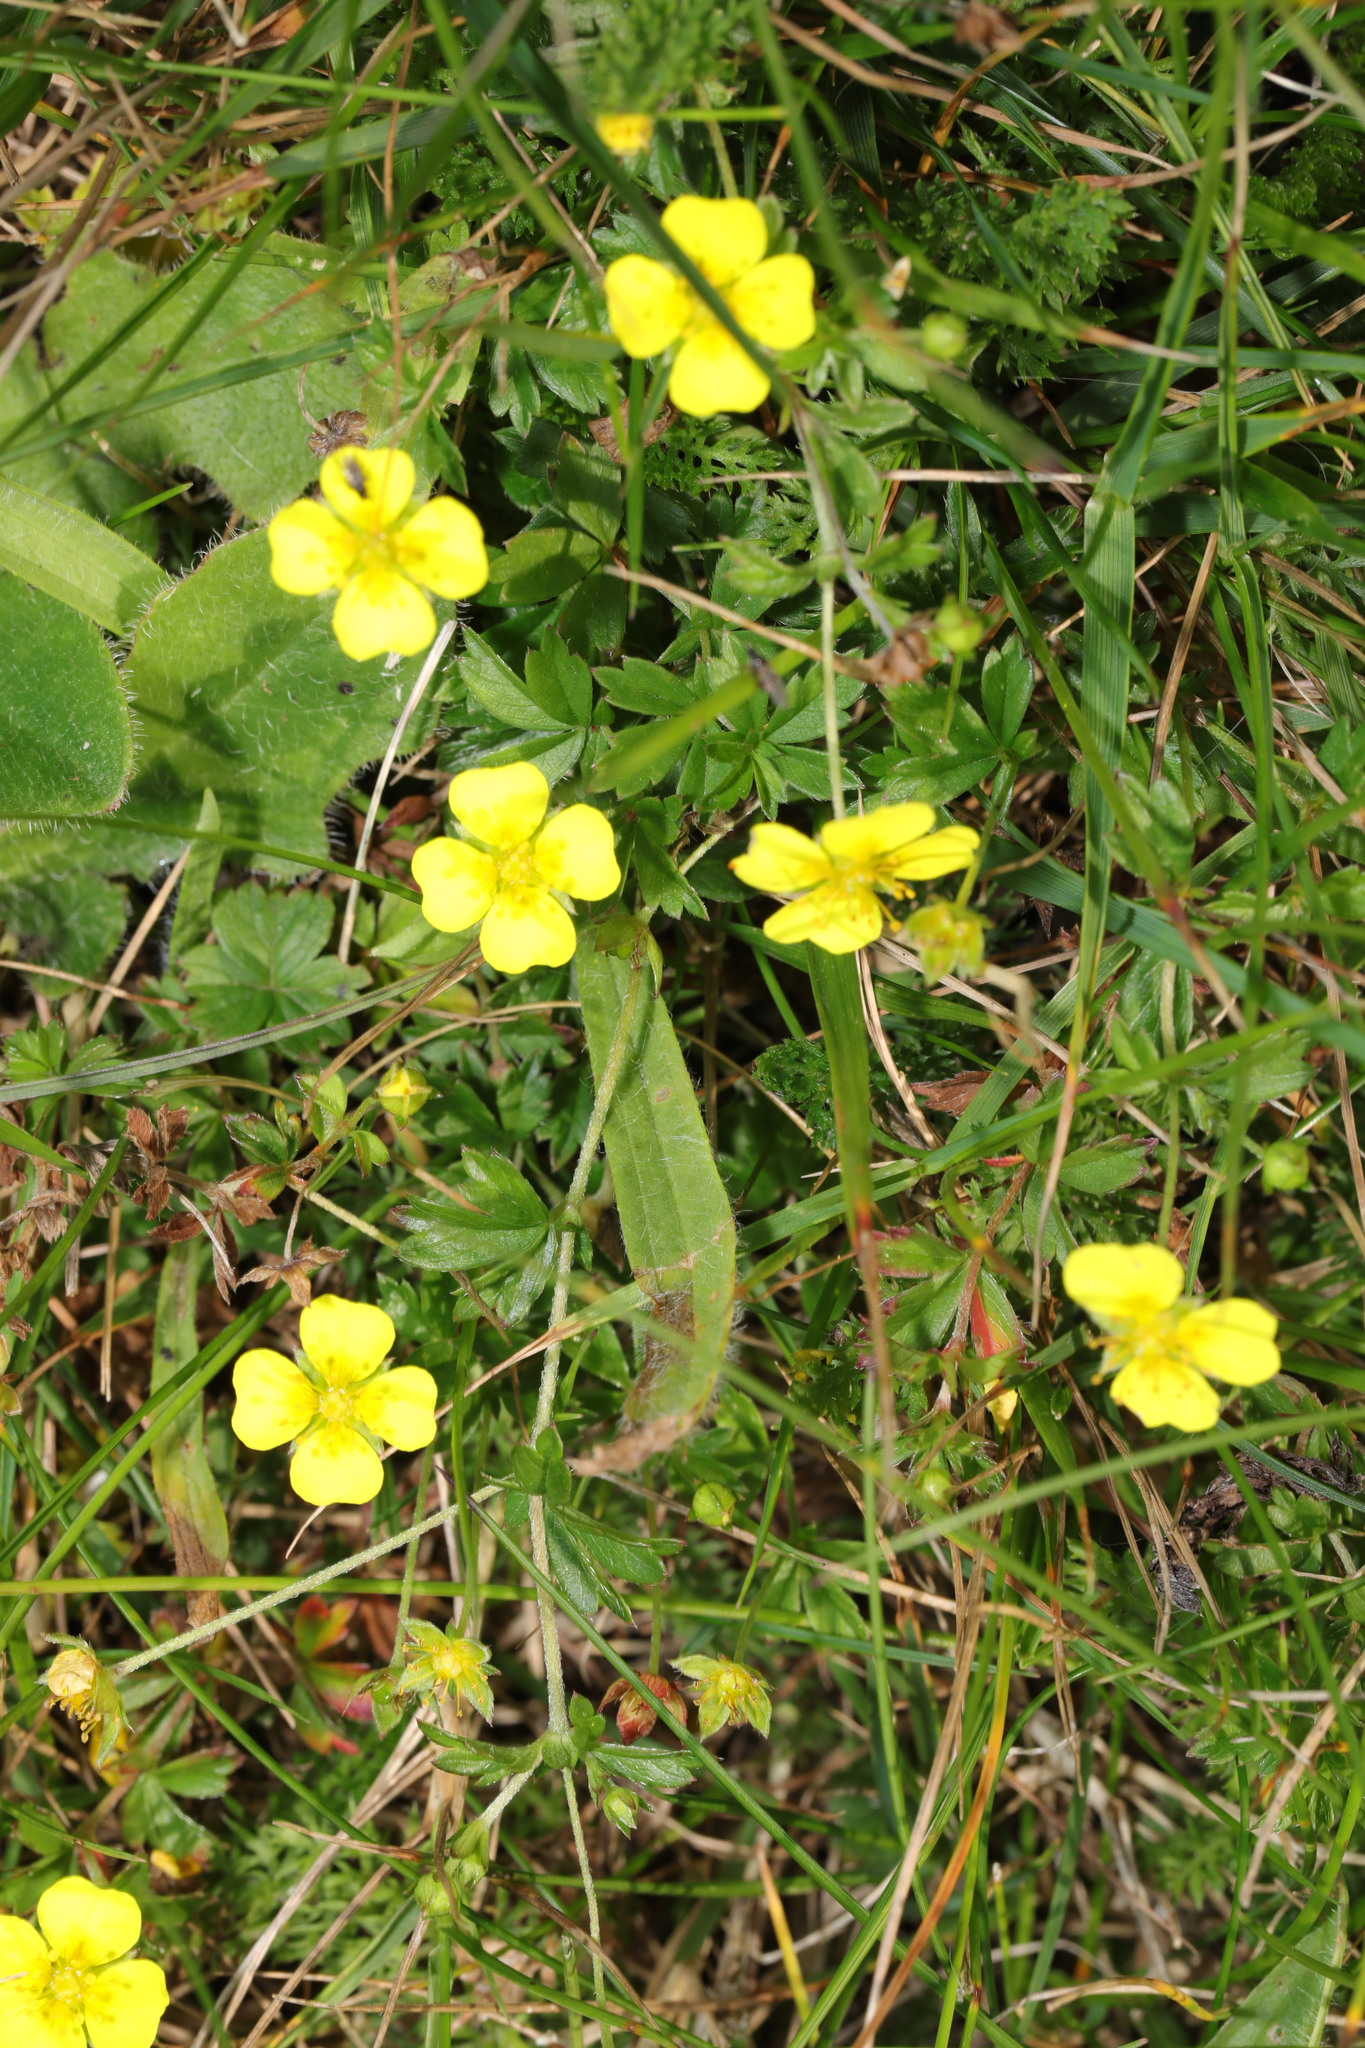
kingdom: Plantae
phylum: Tracheophyta
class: Magnoliopsida
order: Rosales
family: Rosaceae
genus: Potentilla
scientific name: Potentilla erecta
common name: Tormentil
